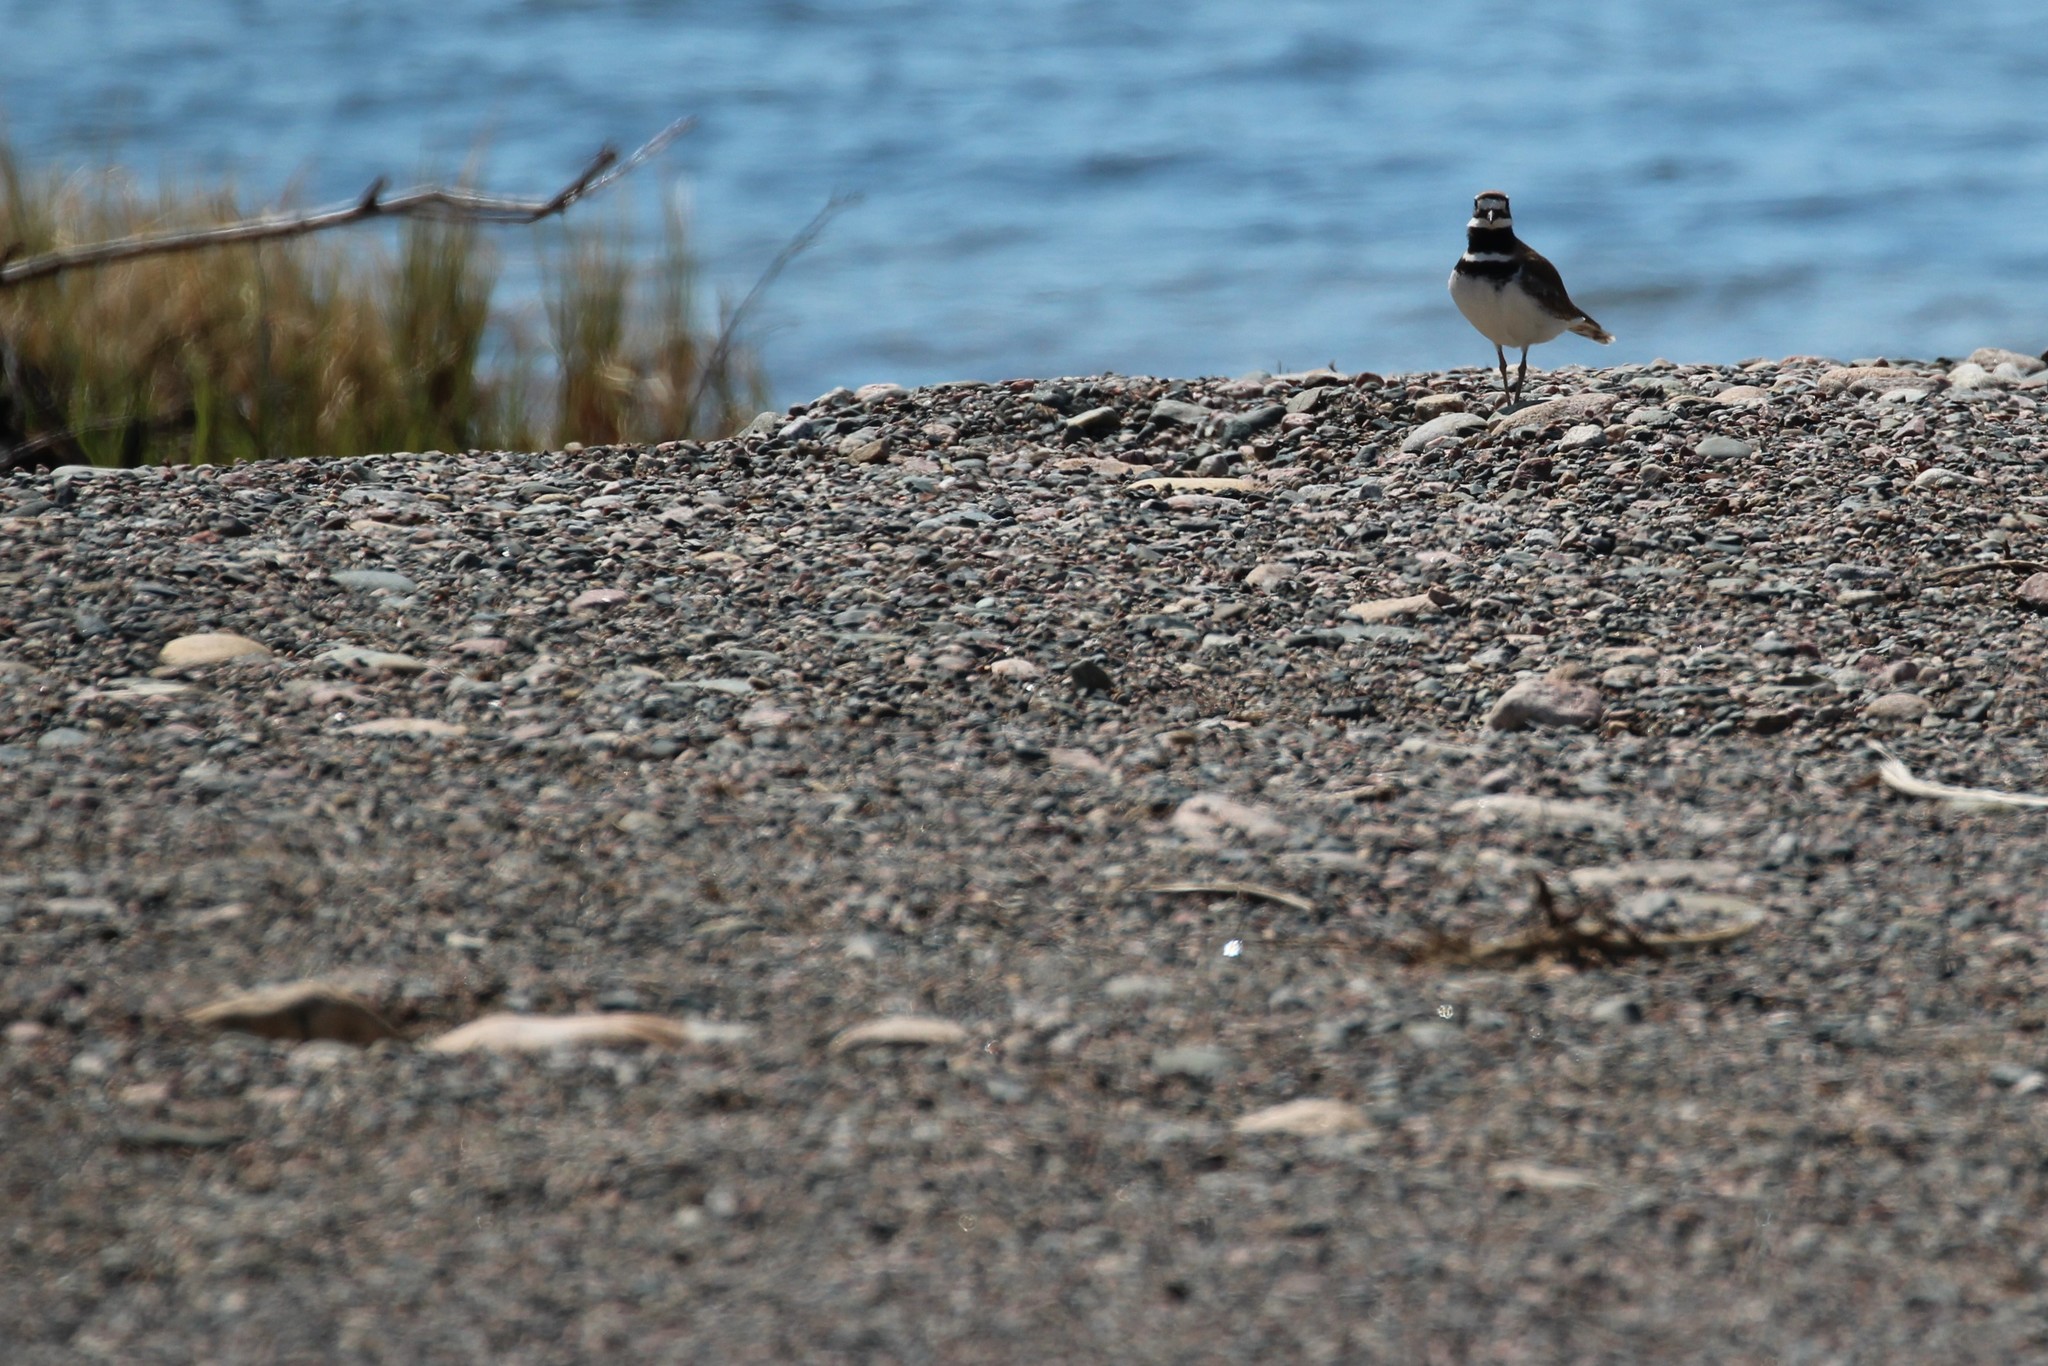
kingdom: Animalia
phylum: Chordata
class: Aves
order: Charadriiformes
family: Charadriidae
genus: Charadrius
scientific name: Charadrius vociferus
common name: Killdeer
